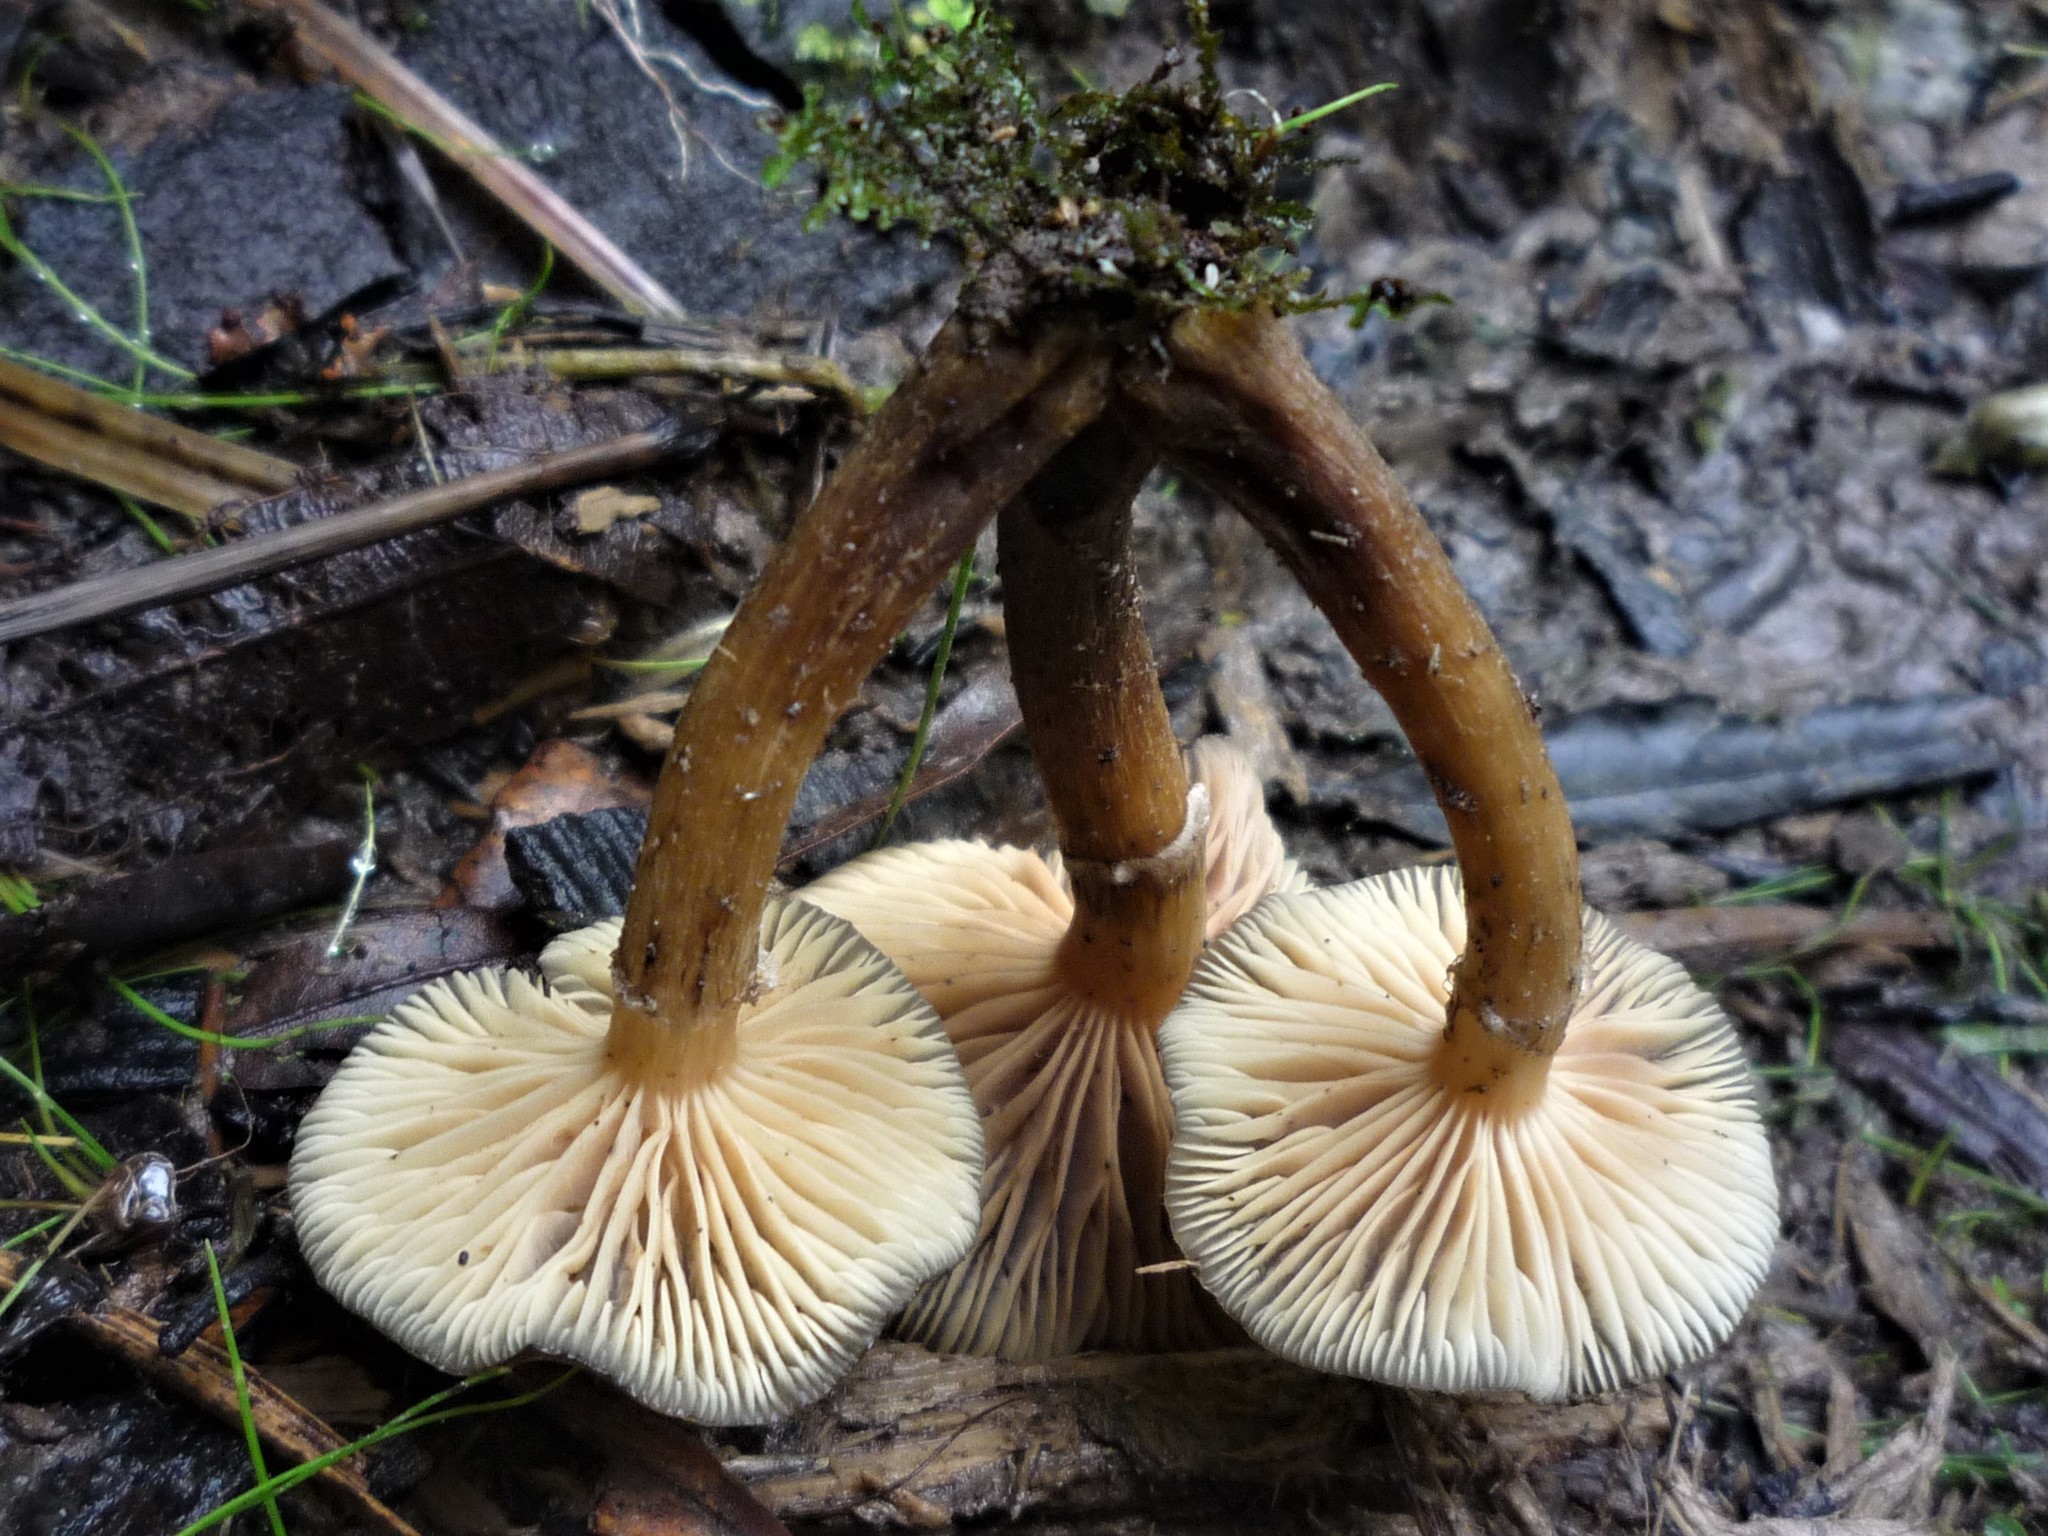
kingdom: Fungi
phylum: Basidiomycota
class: Agaricomycetes
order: Agaricales
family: Physalacriaceae
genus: Armillaria
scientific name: Armillaria novae-zelandiae
